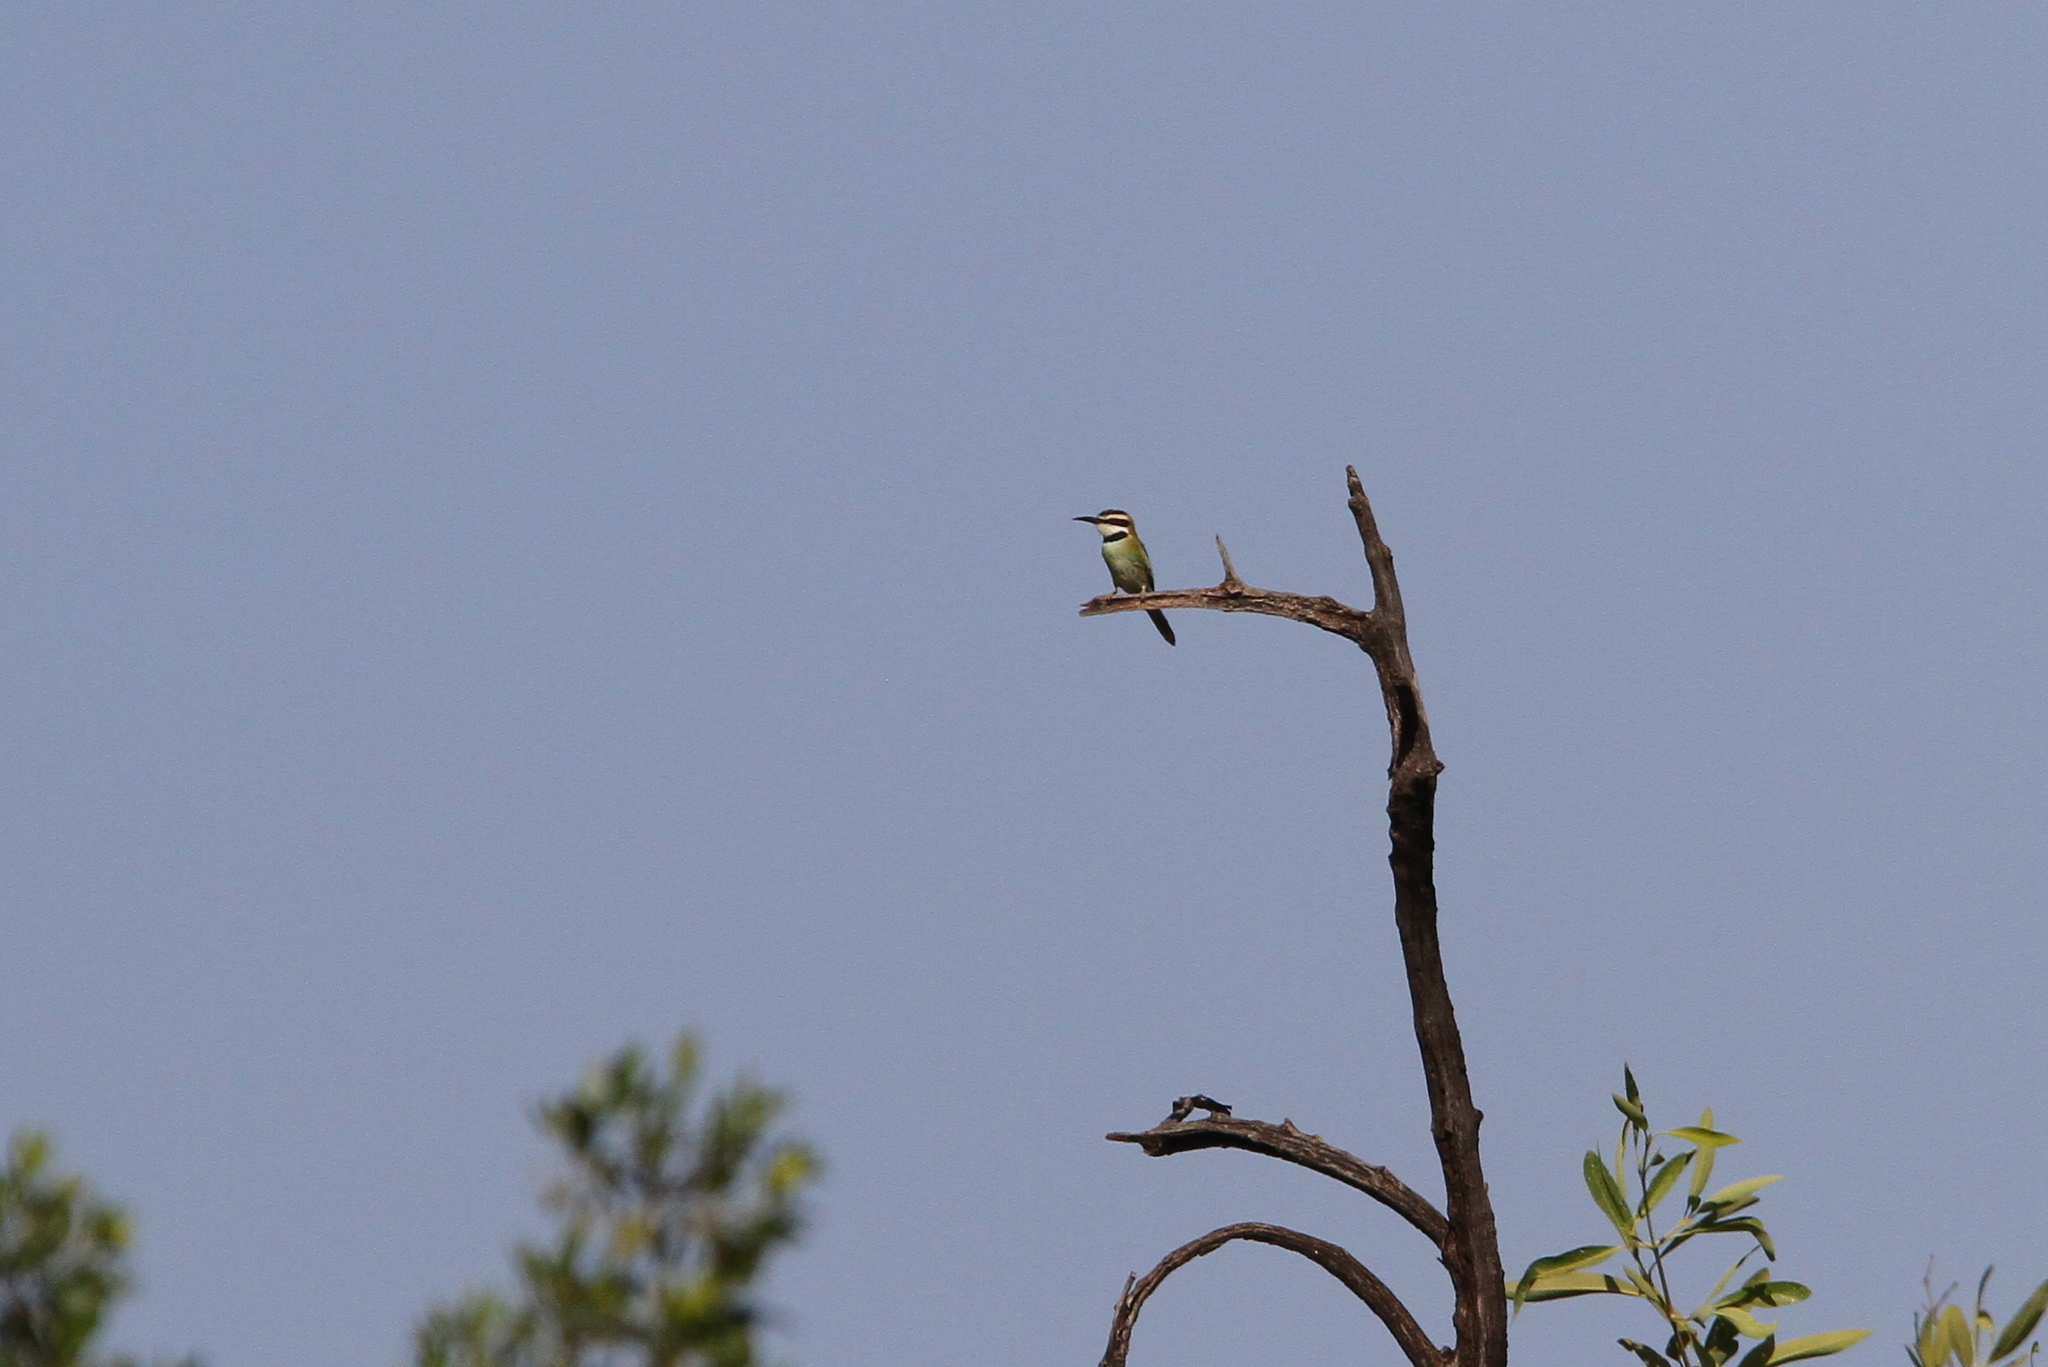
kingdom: Animalia
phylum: Chordata
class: Aves
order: Coraciiformes
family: Meropidae
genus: Merops
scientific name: Merops albicollis
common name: White-throated bee-eater
